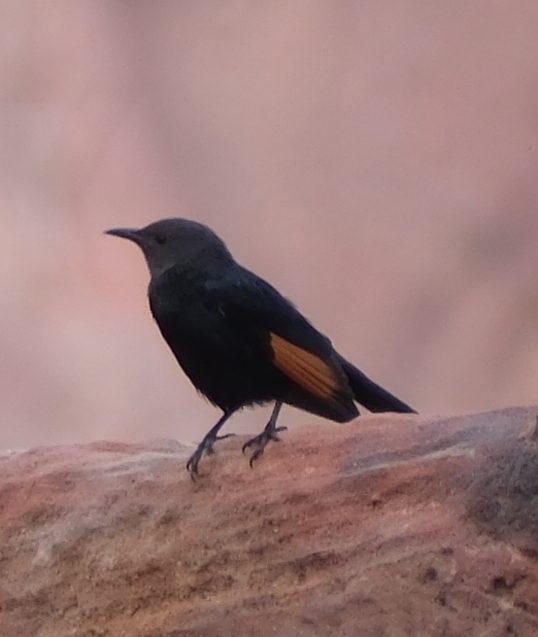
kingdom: Animalia
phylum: Chordata
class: Aves
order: Passeriformes
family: Sturnidae
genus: Onychognathus
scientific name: Onychognathus tristramii
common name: Tristram's starling
